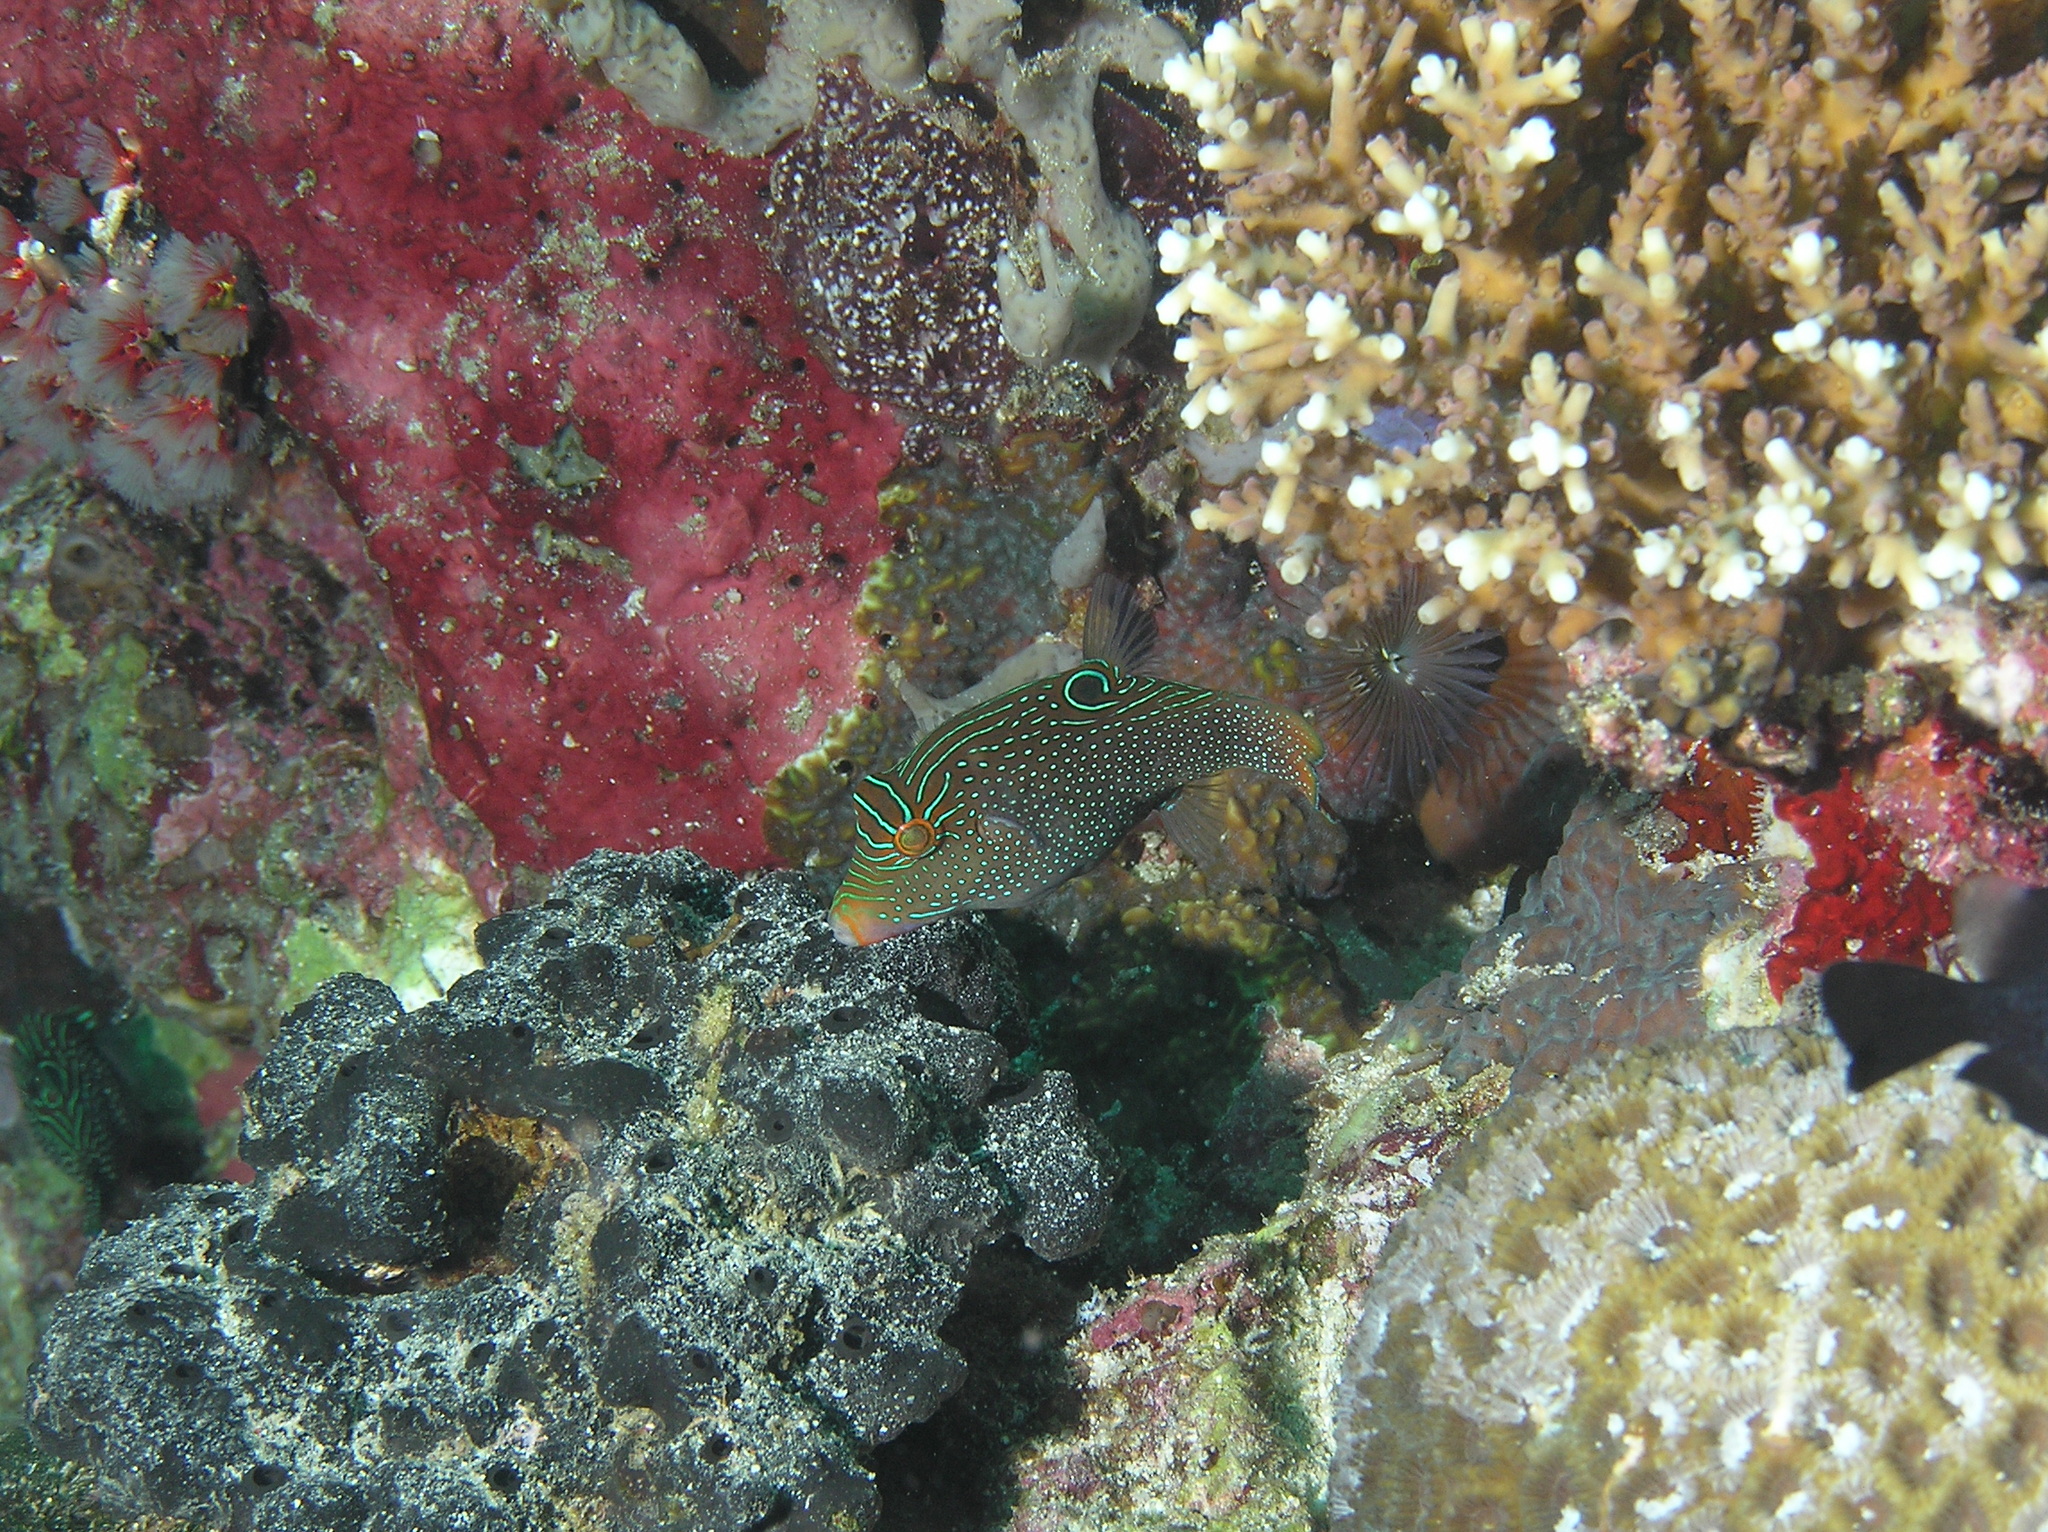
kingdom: Animalia
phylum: Chordata
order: Tetraodontiformes
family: Tetraodontidae
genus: Canthigaster
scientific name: Canthigaster papua
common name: False-eyed pufferfish
